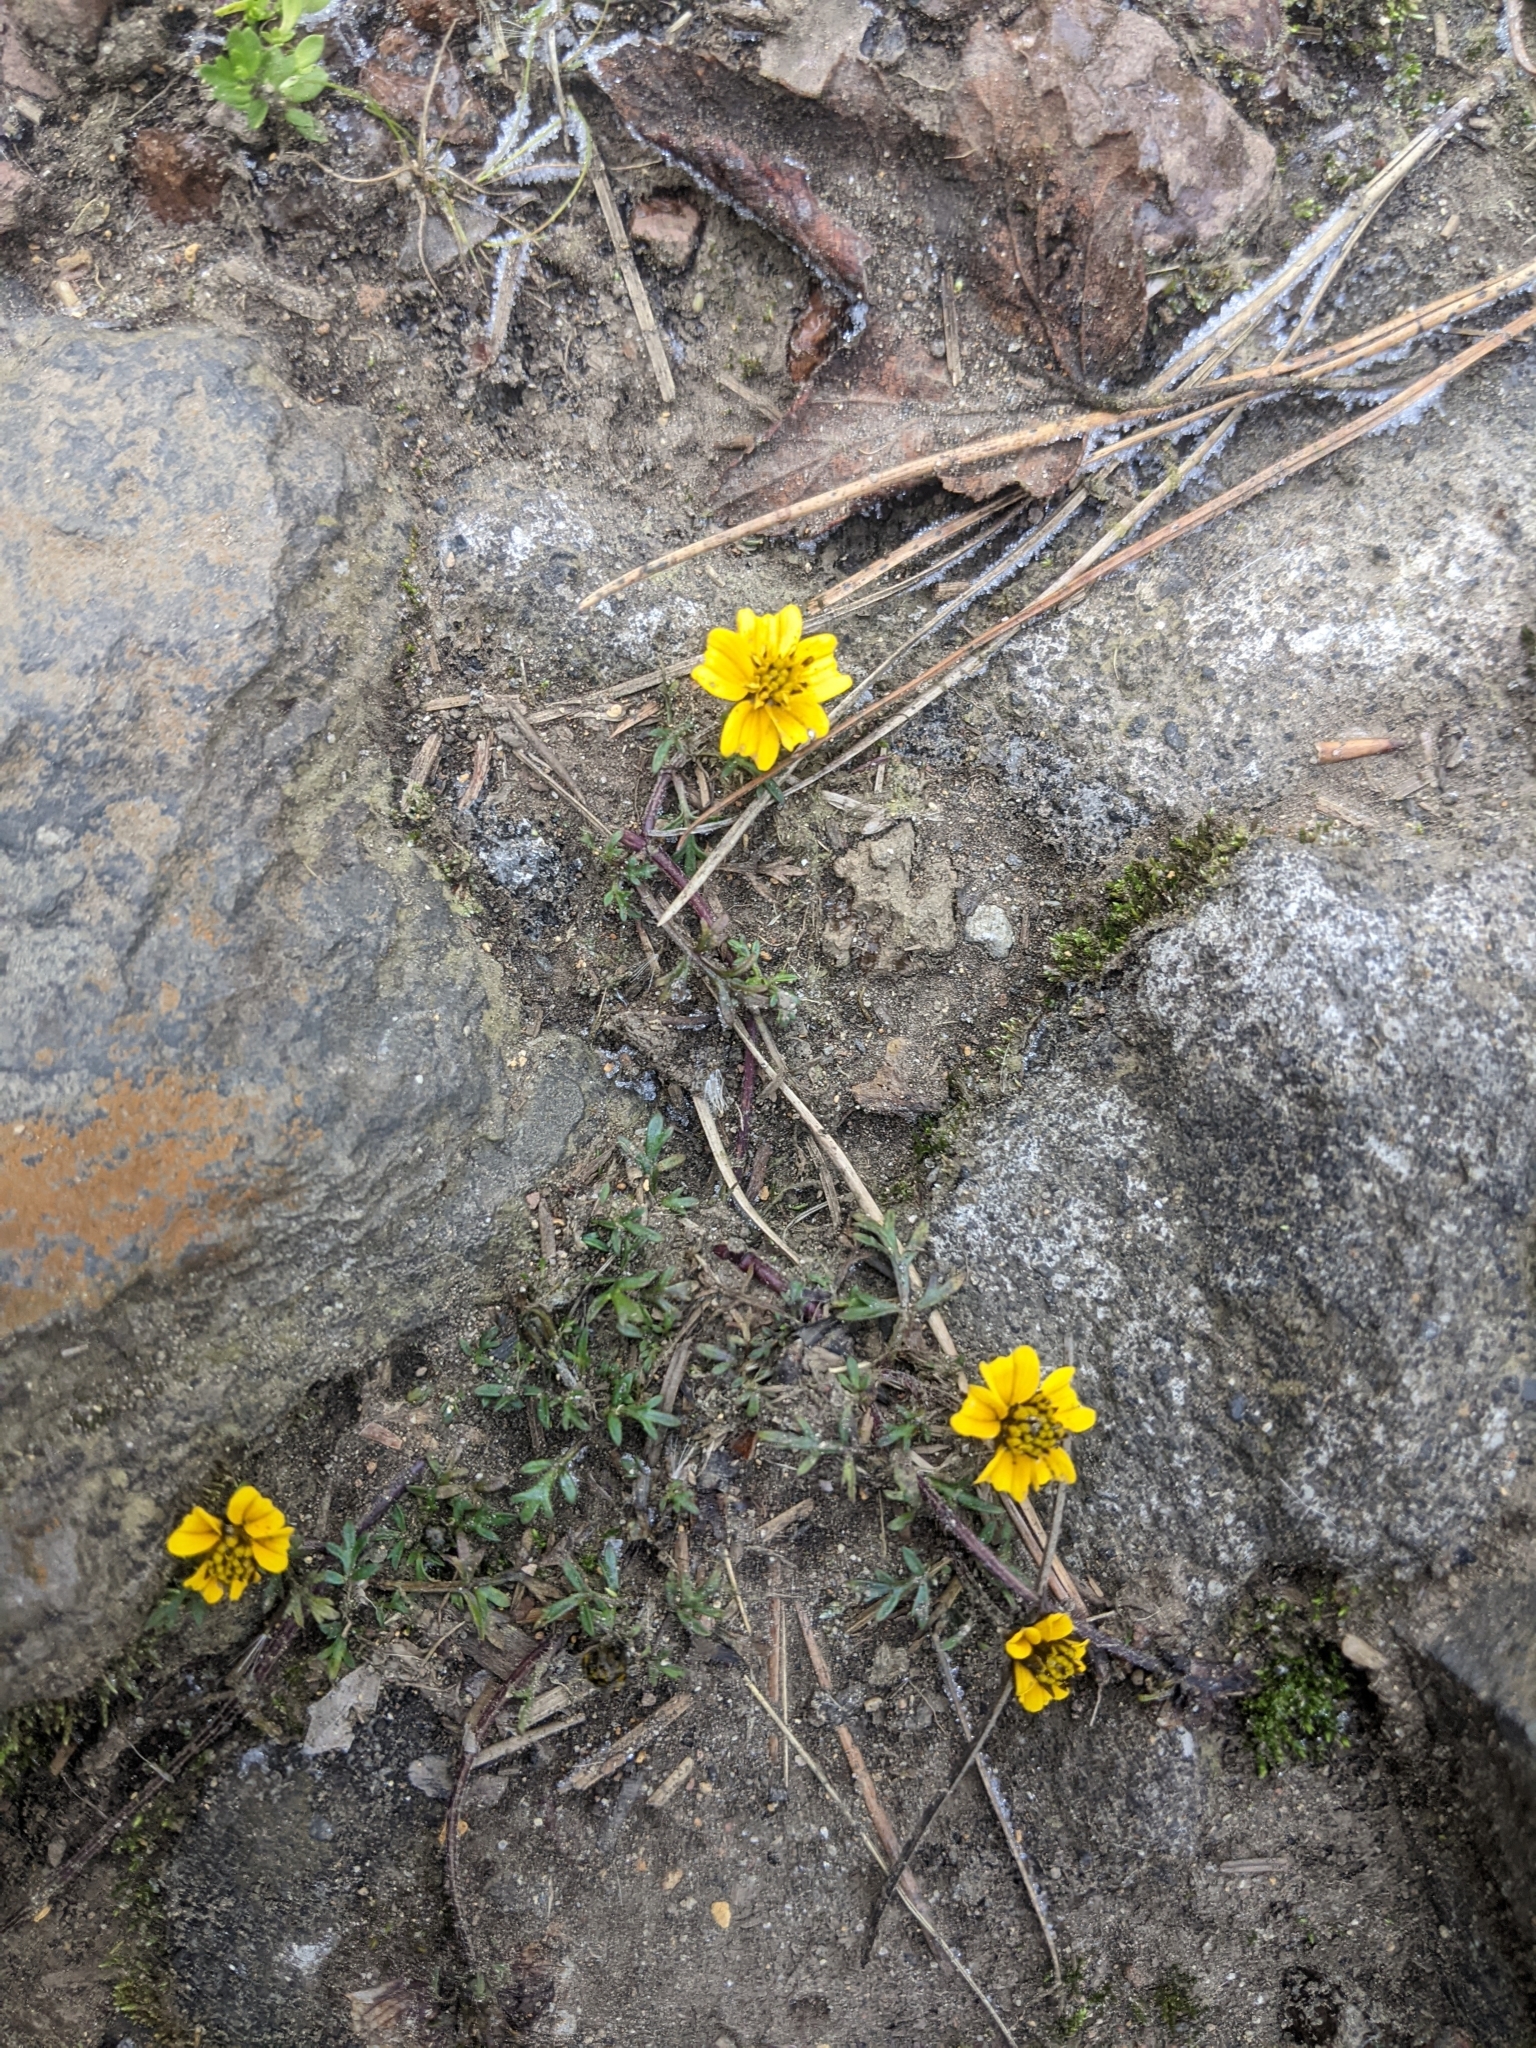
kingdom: Plantae
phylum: Tracheophyta
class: Magnoliopsida
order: Asterales
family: Asteraceae
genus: Bidens
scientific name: Bidens anthemoides
